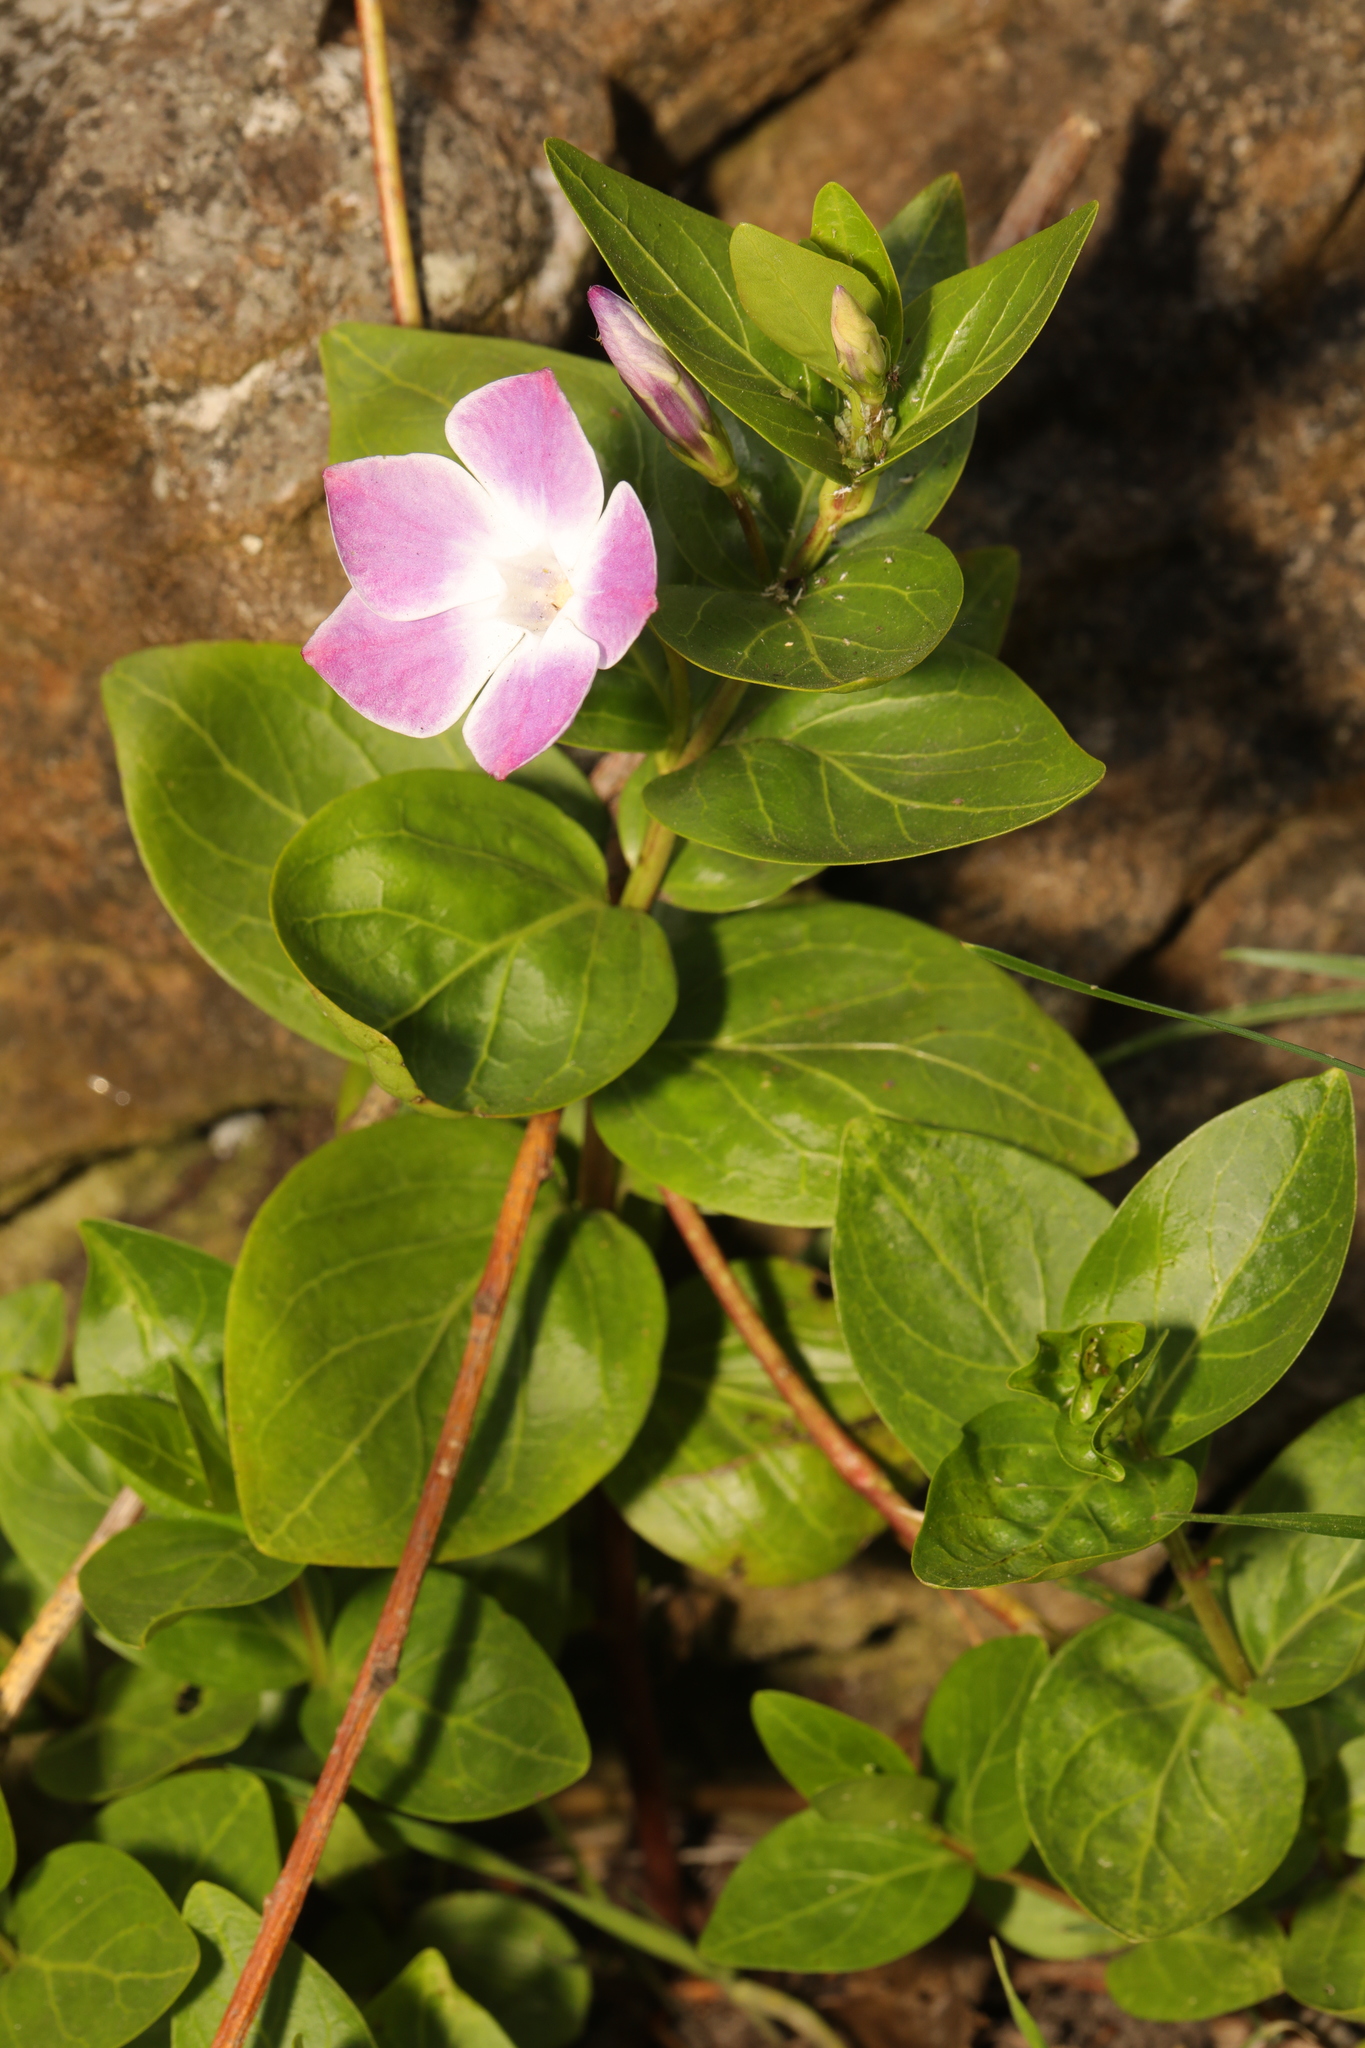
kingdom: Plantae
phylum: Tracheophyta
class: Magnoliopsida
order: Gentianales
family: Apocynaceae
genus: Vinca
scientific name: Vinca difformis
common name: Intermediate periwinkle
